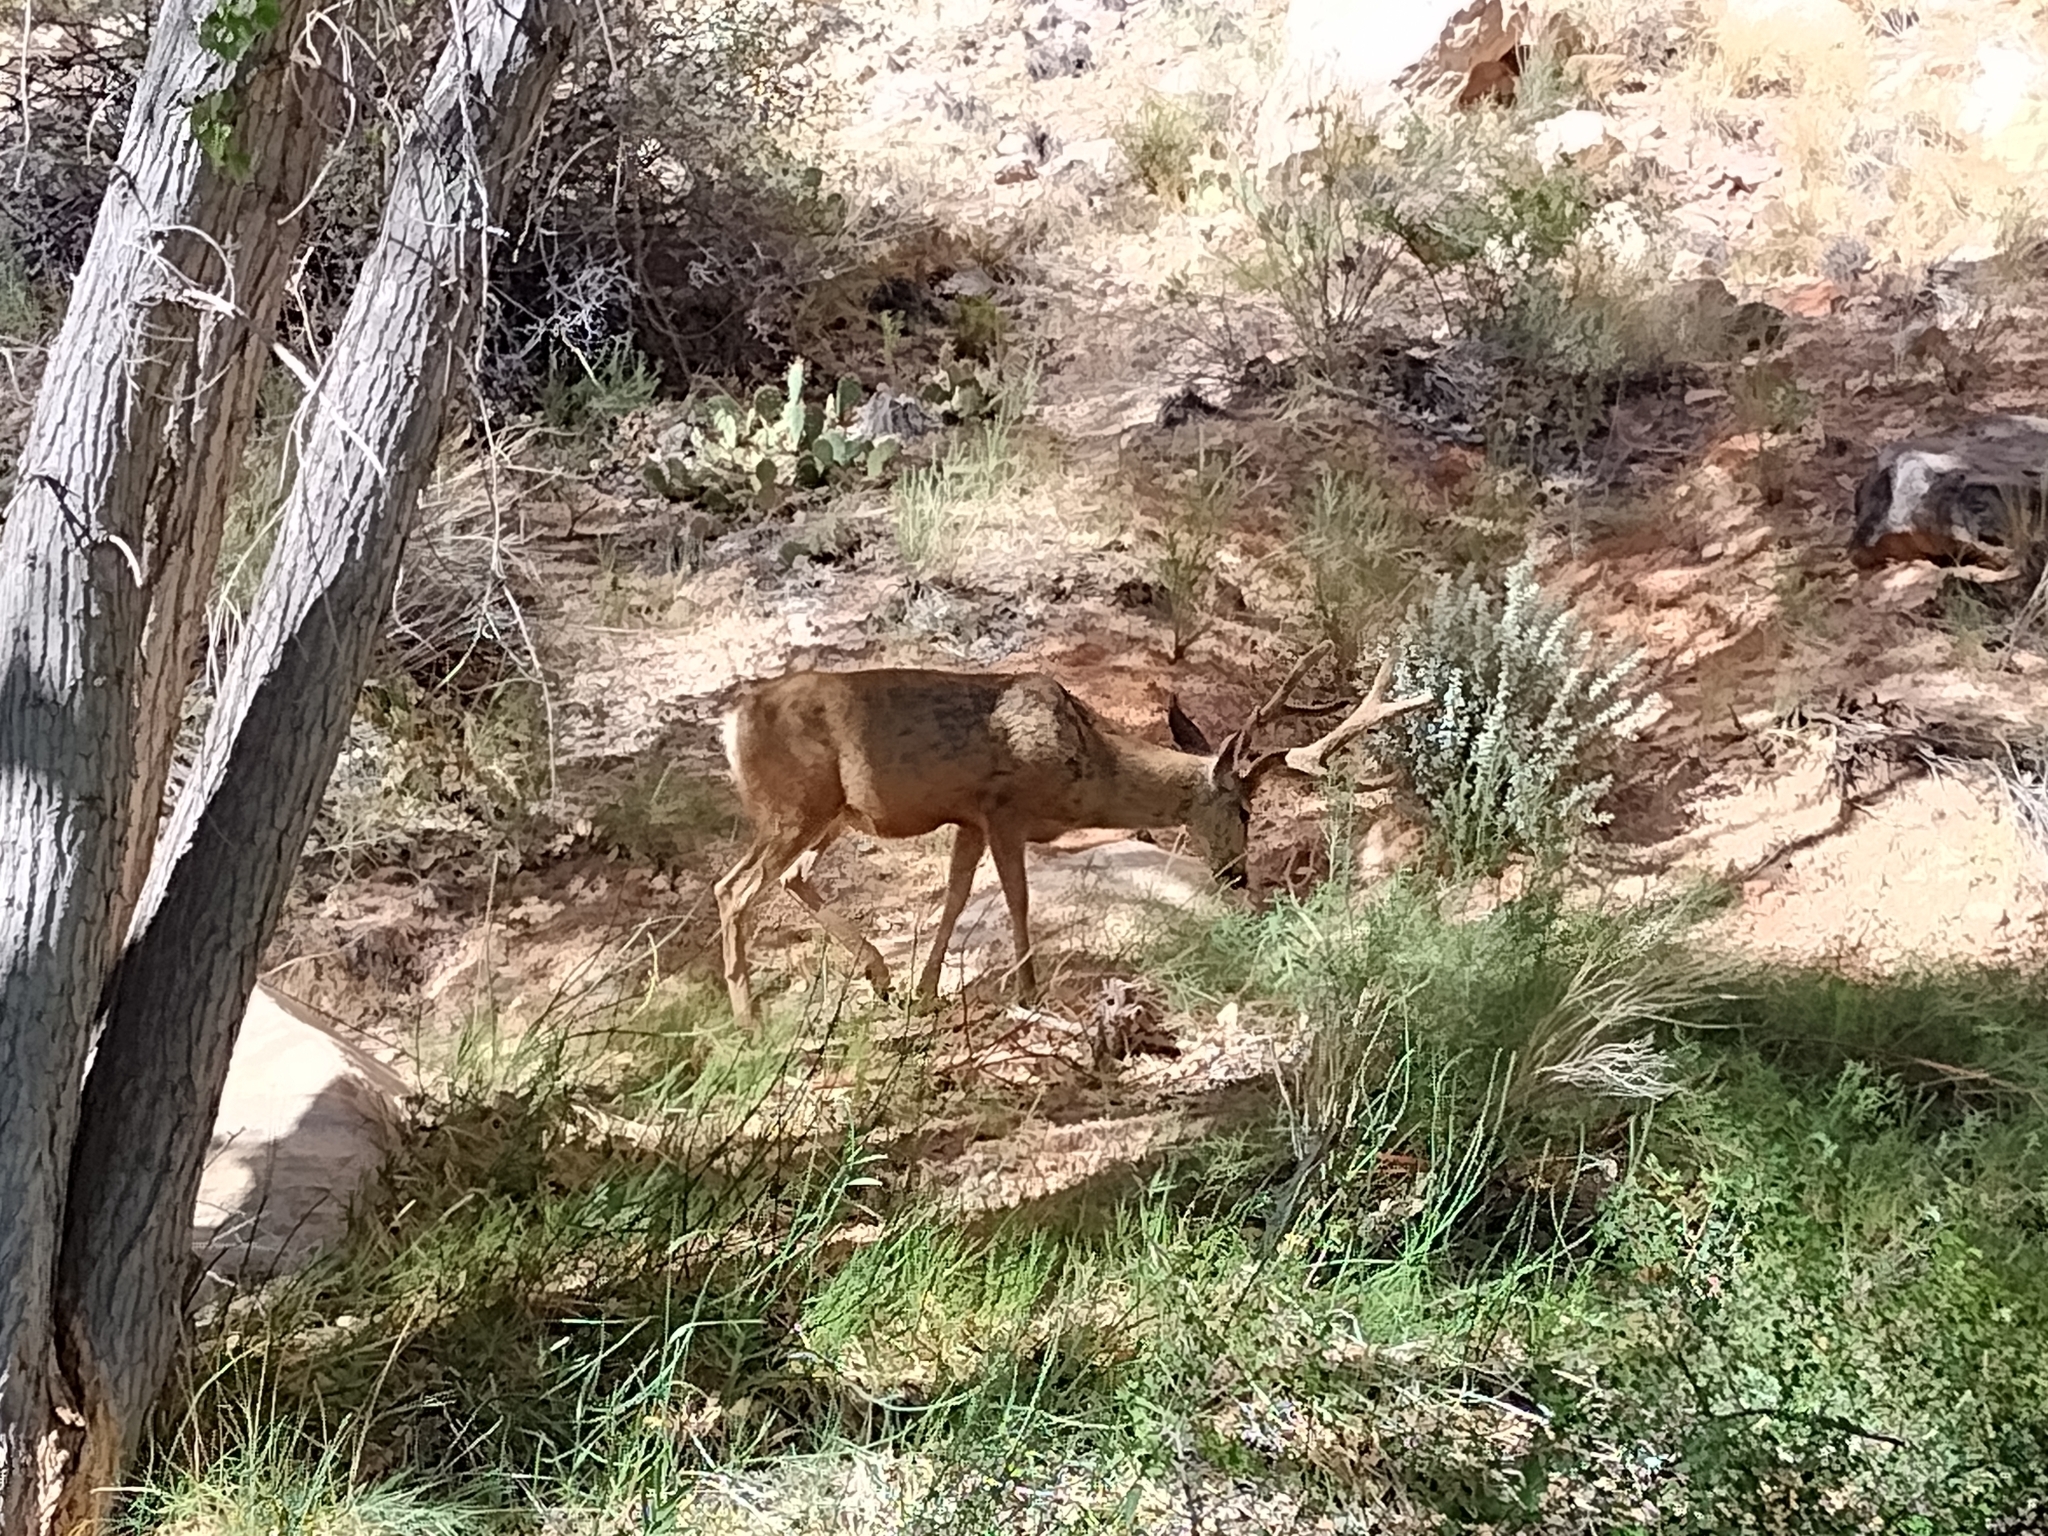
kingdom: Animalia
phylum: Chordata
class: Mammalia
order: Artiodactyla
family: Cervidae
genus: Odocoileus
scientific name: Odocoileus hemionus
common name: Mule deer
